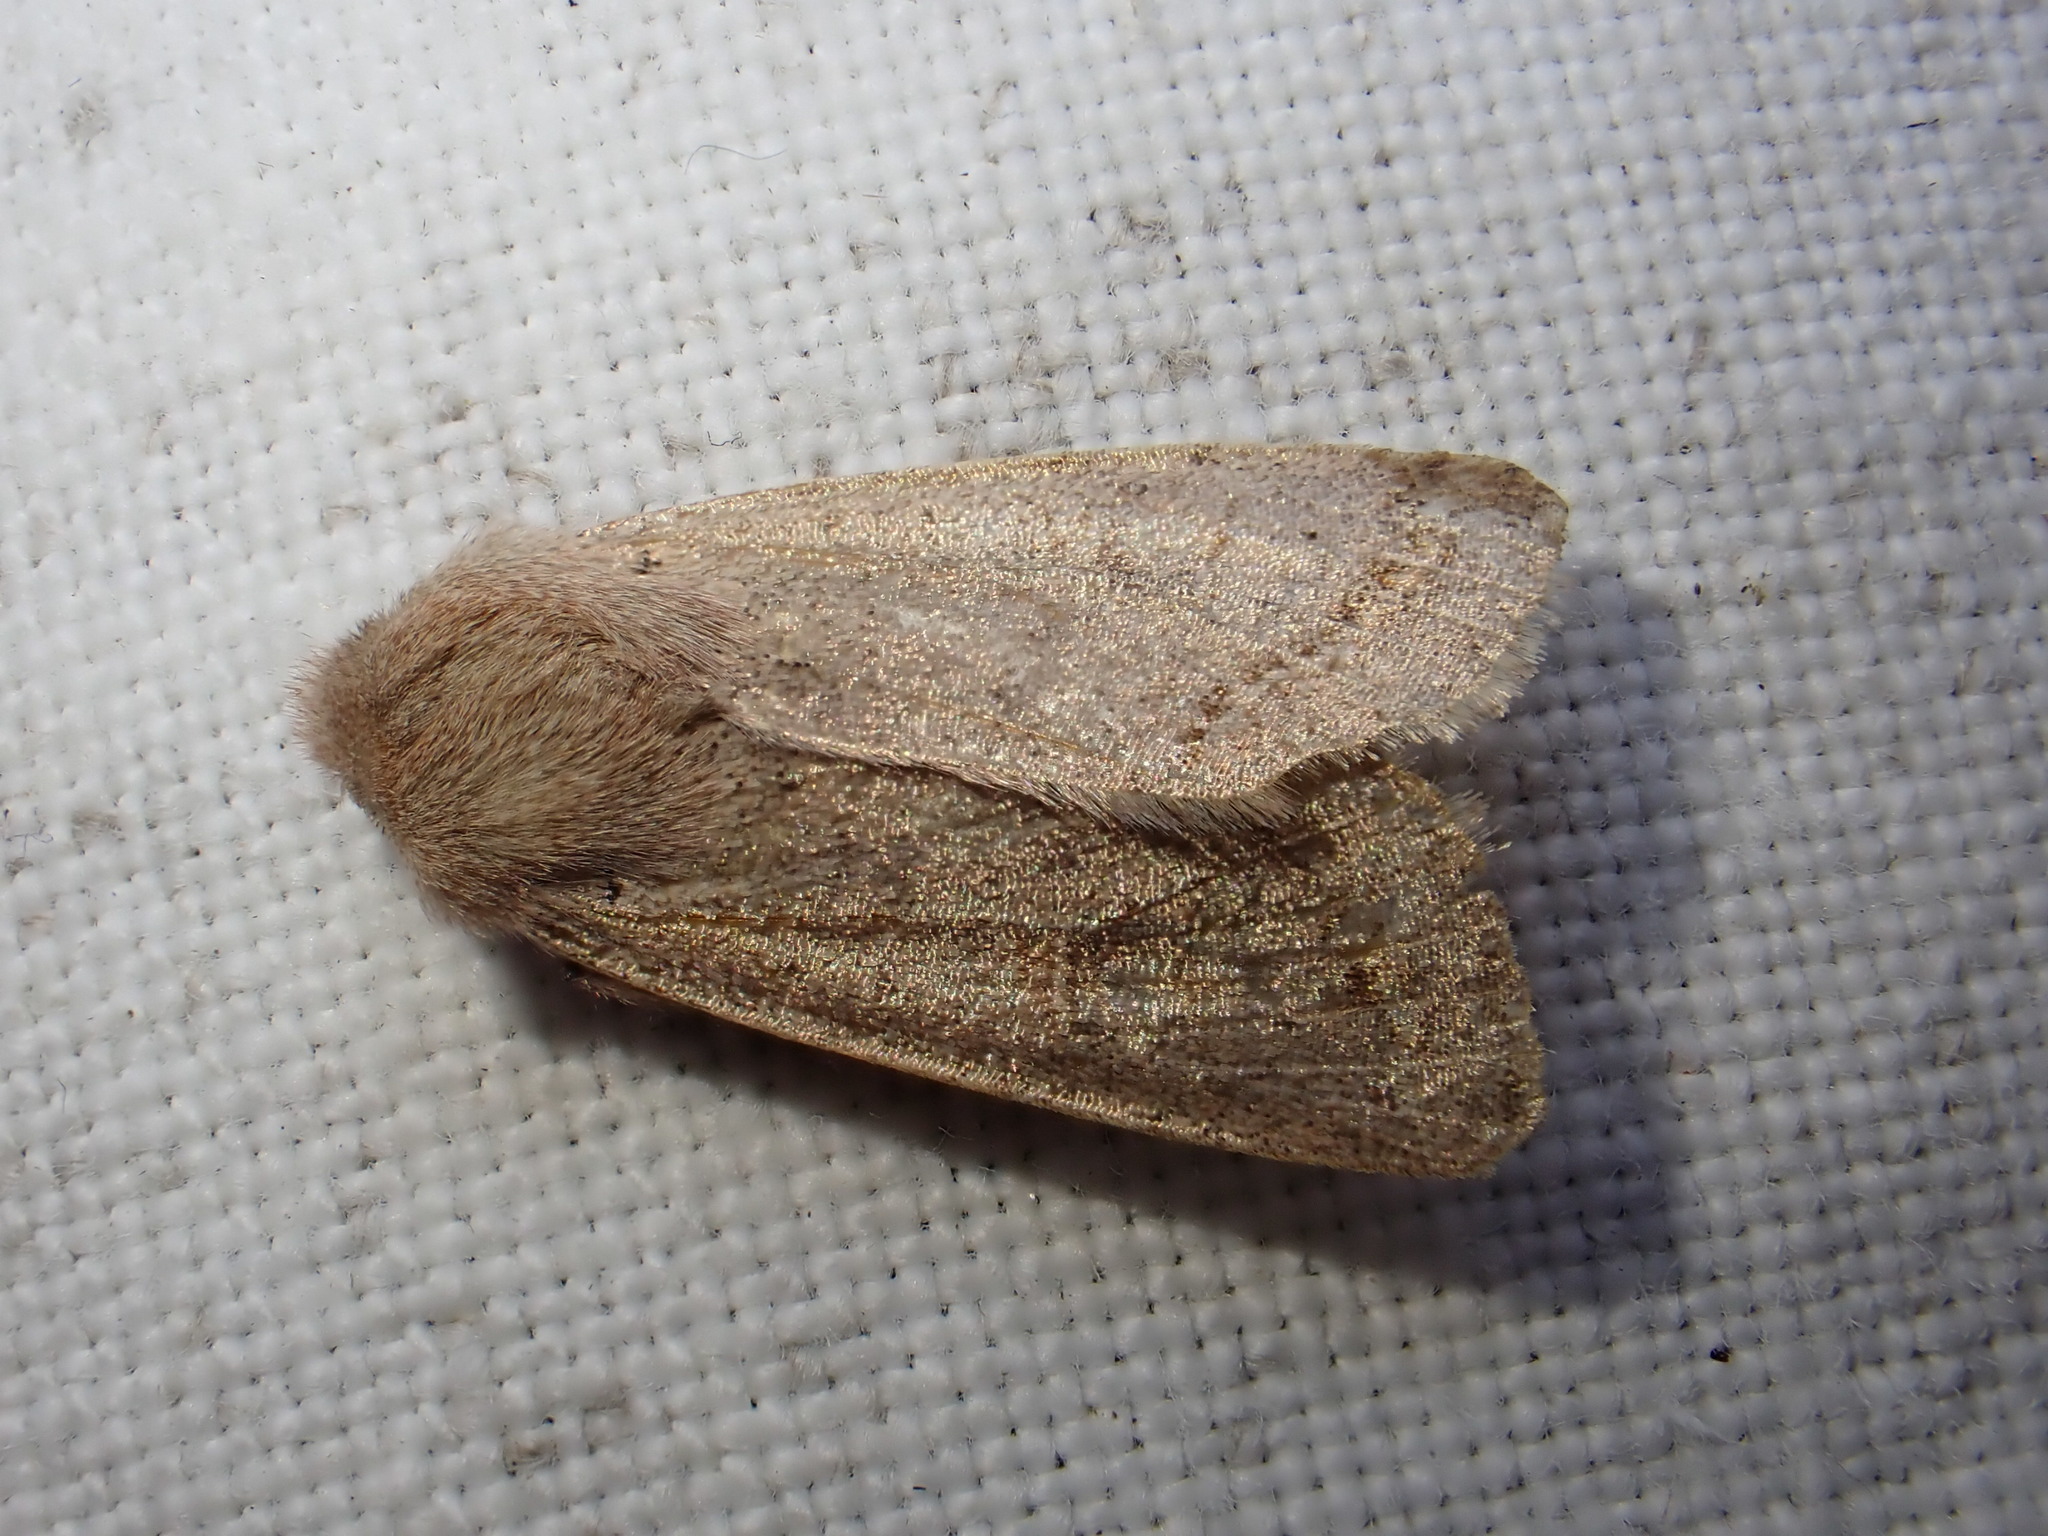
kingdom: Animalia
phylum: Arthropoda
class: Insecta
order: Lepidoptera
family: Noctuidae
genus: Orthosia
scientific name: Orthosia cerasi
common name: Common quaker
